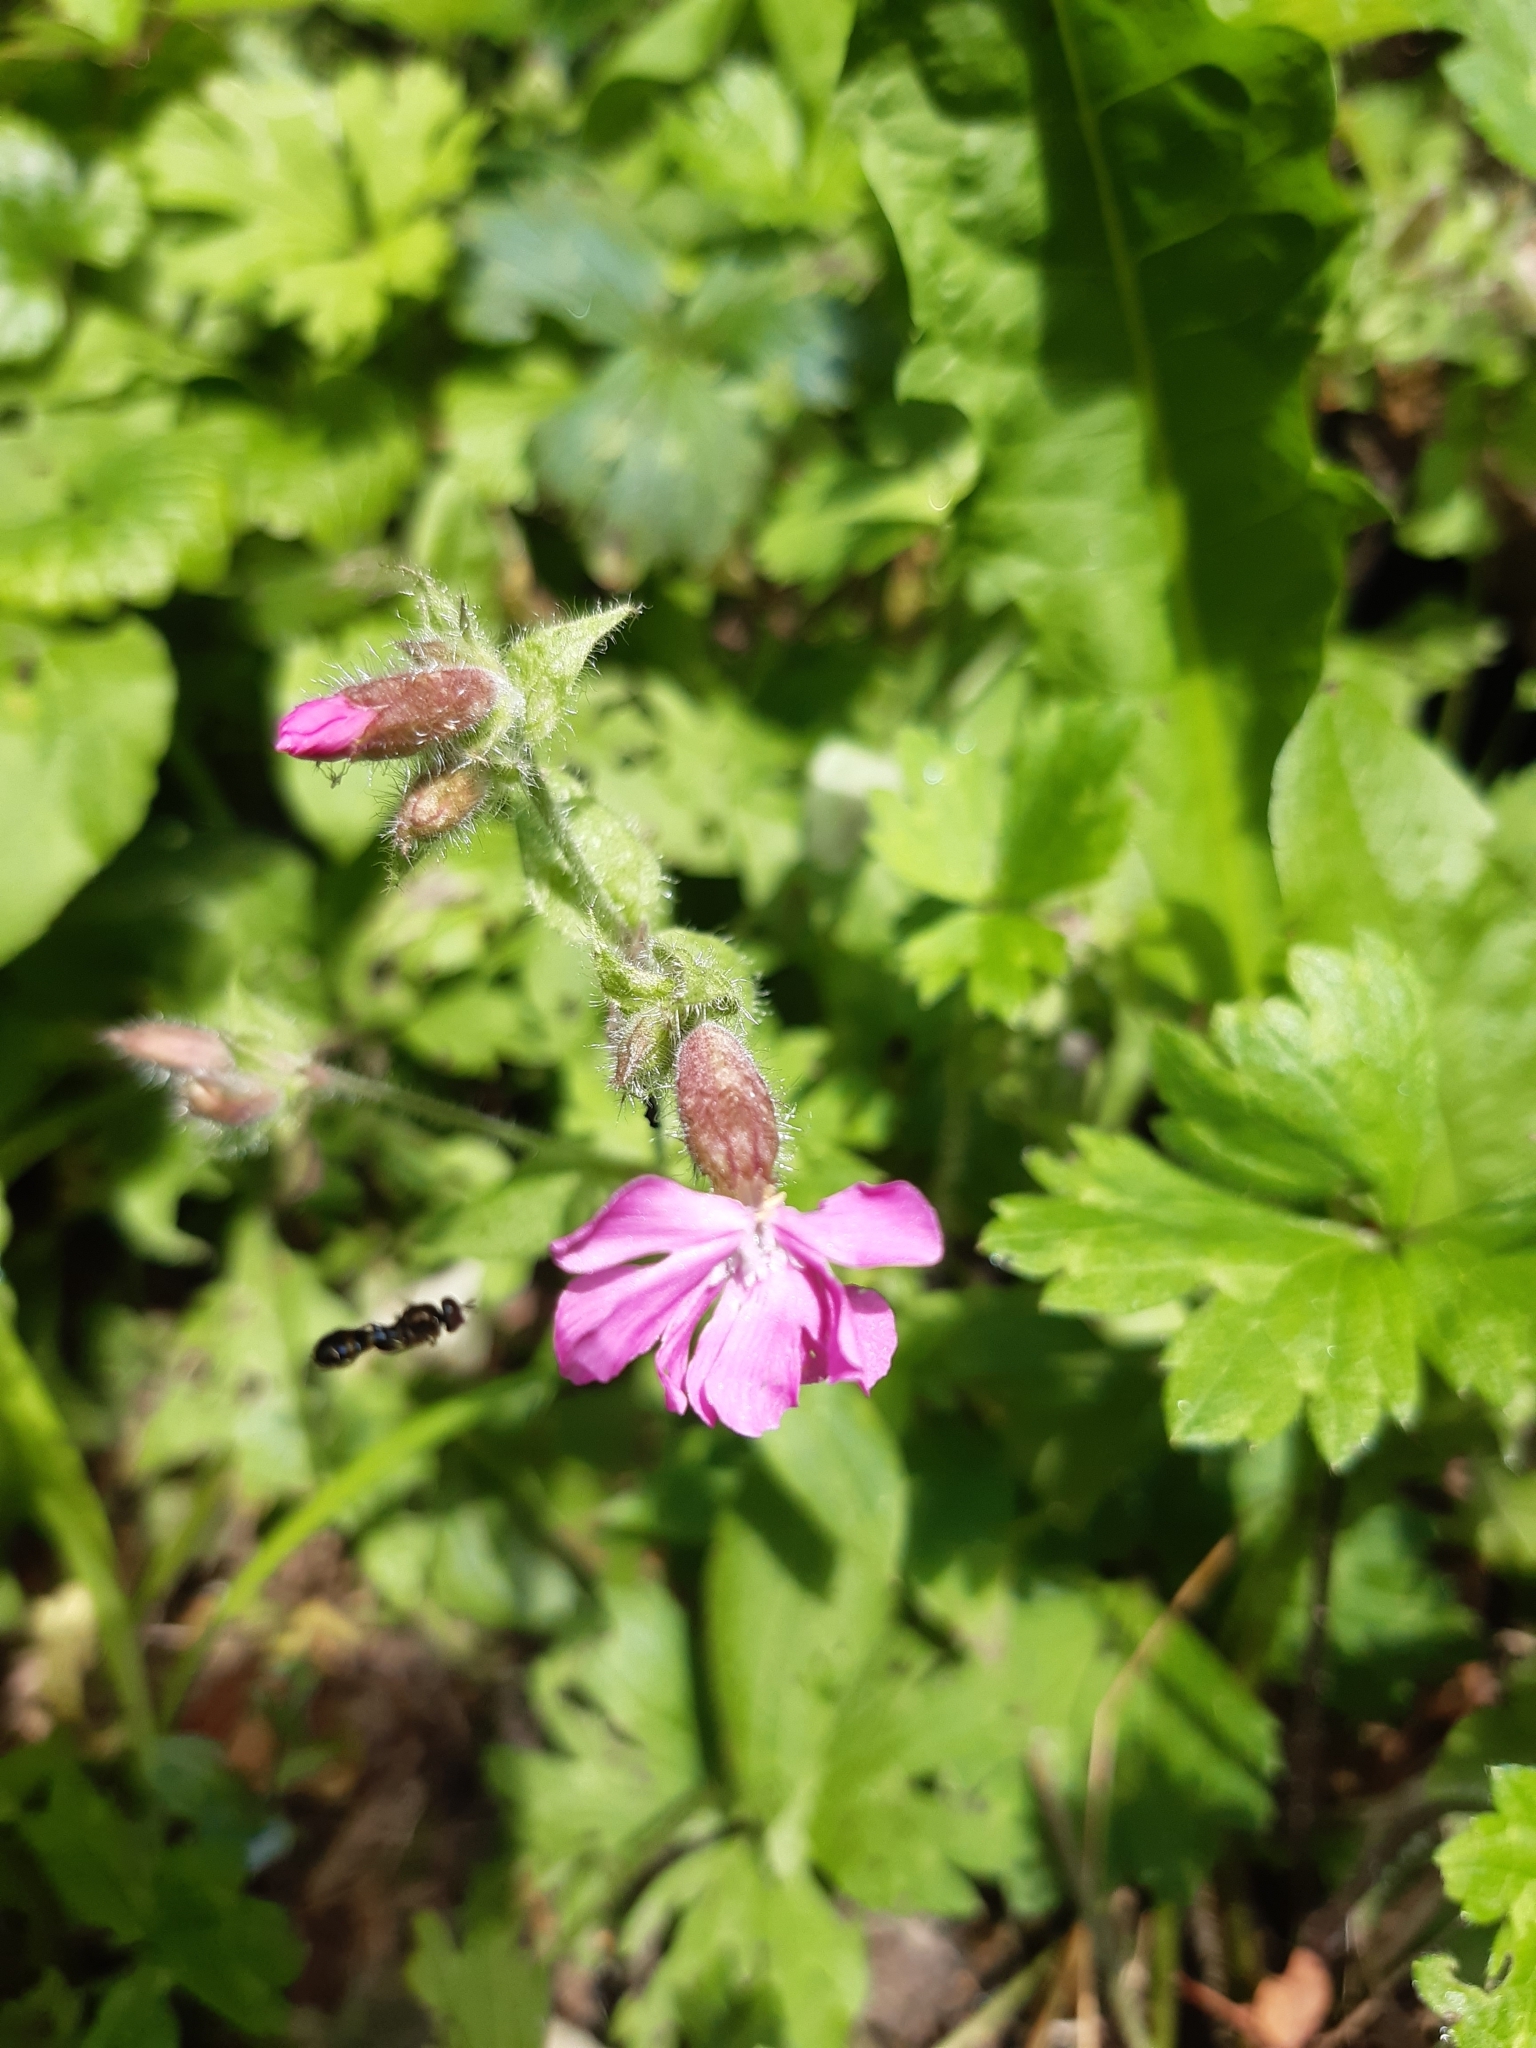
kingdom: Plantae
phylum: Tracheophyta
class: Magnoliopsida
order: Caryophyllales
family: Caryophyllaceae
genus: Silene
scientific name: Silene dioica
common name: Red campion
